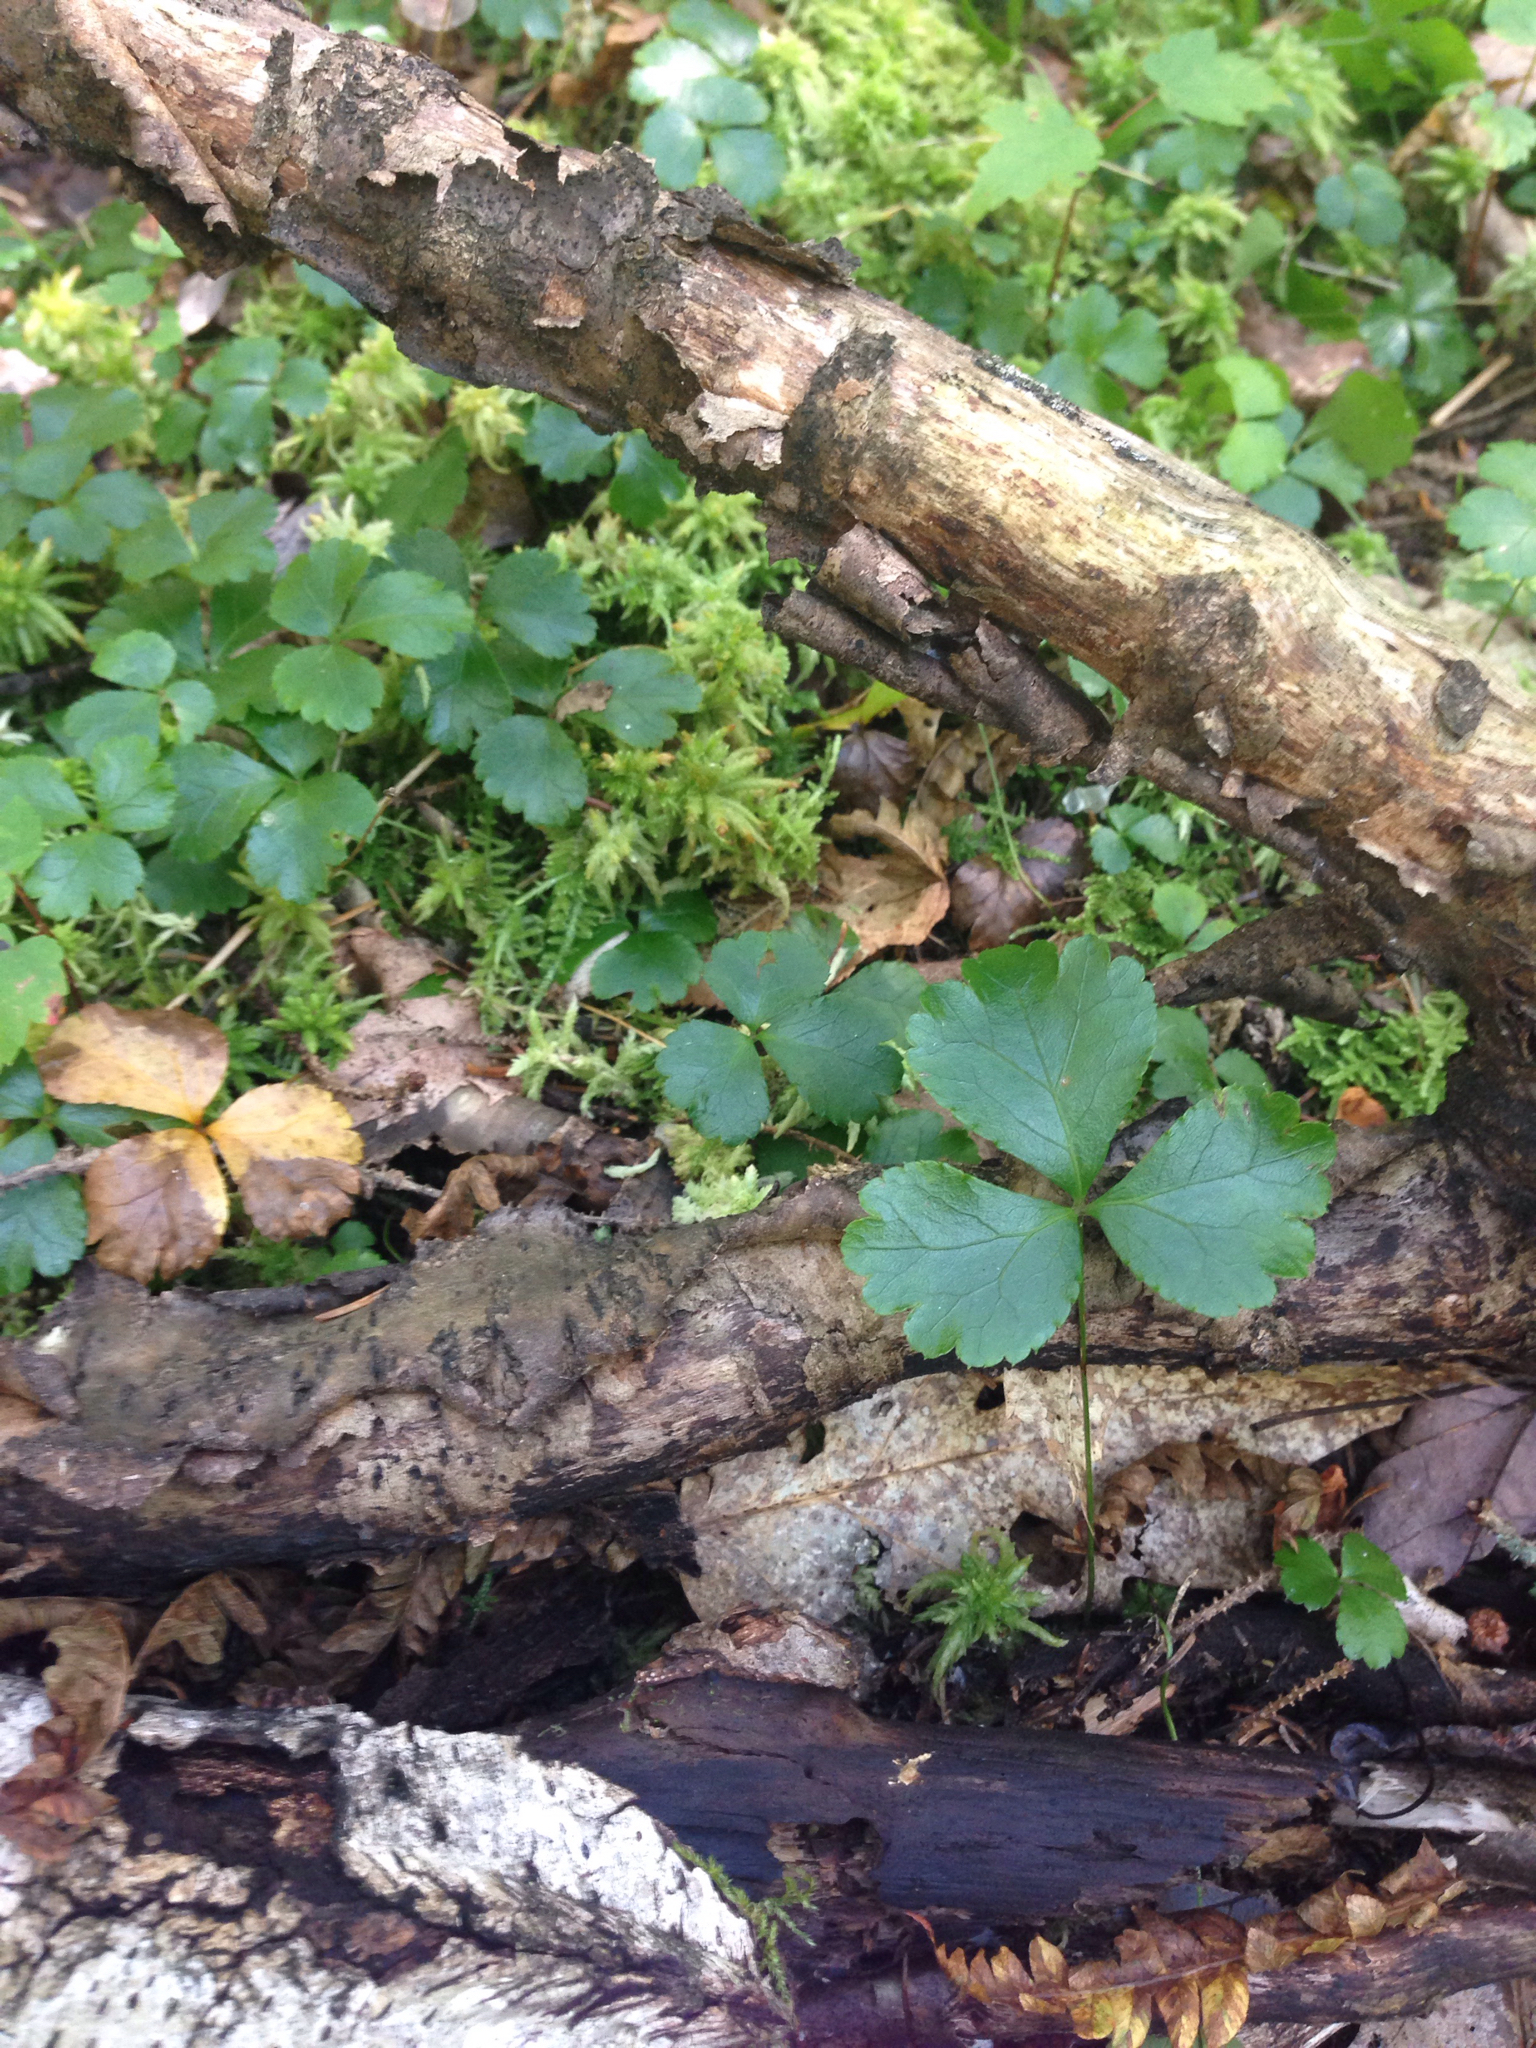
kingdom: Plantae
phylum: Tracheophyta
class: Magnoliopsida
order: Ranunculales
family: Ranunculaceae
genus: Coptis
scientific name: Coptis trifolia
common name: Canker-root
